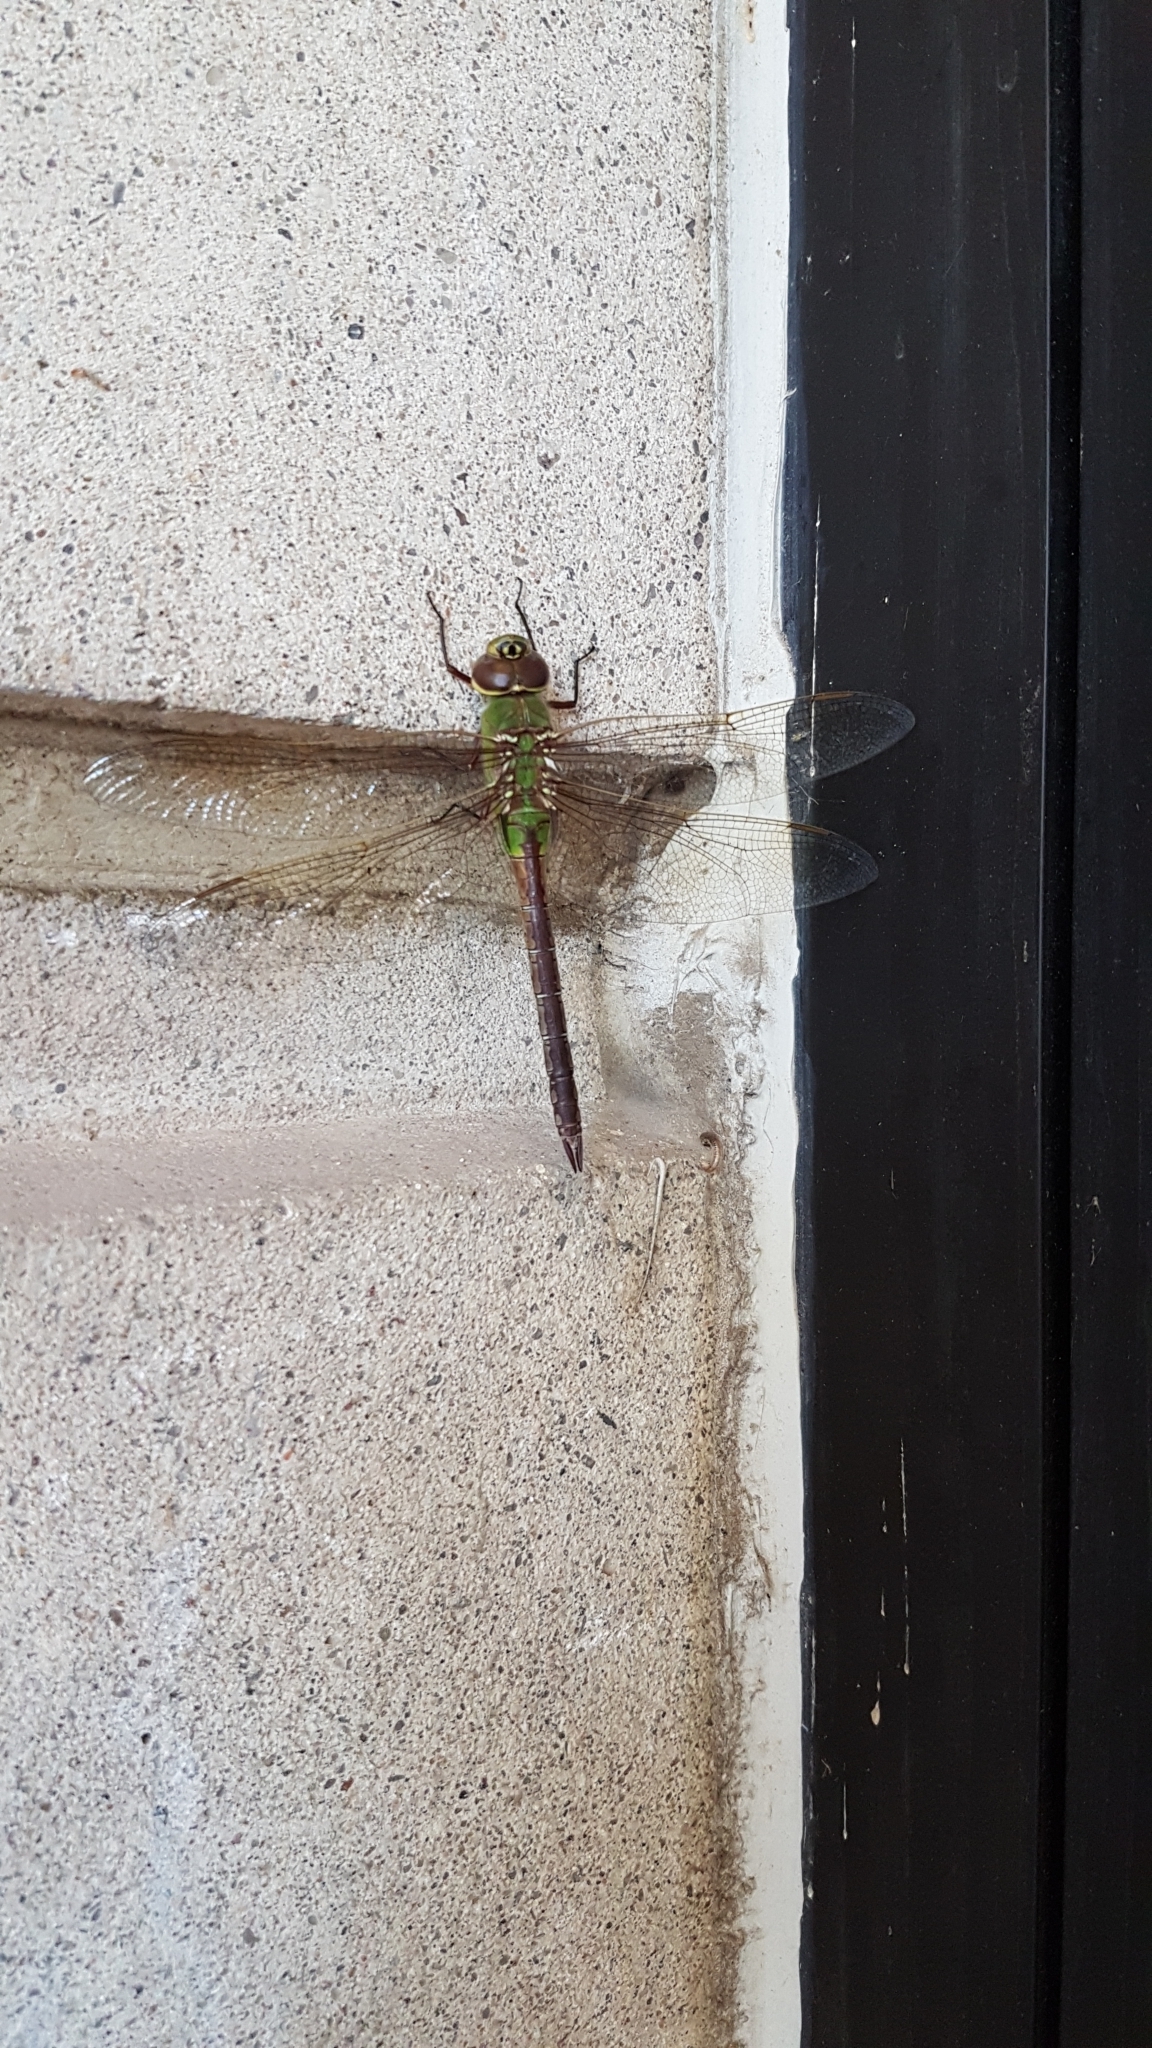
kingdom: Animalia
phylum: Arthropoda
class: Insecta
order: Odonata
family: Aeshnidae
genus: Anax
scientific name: Anax junius
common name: Common green darner
